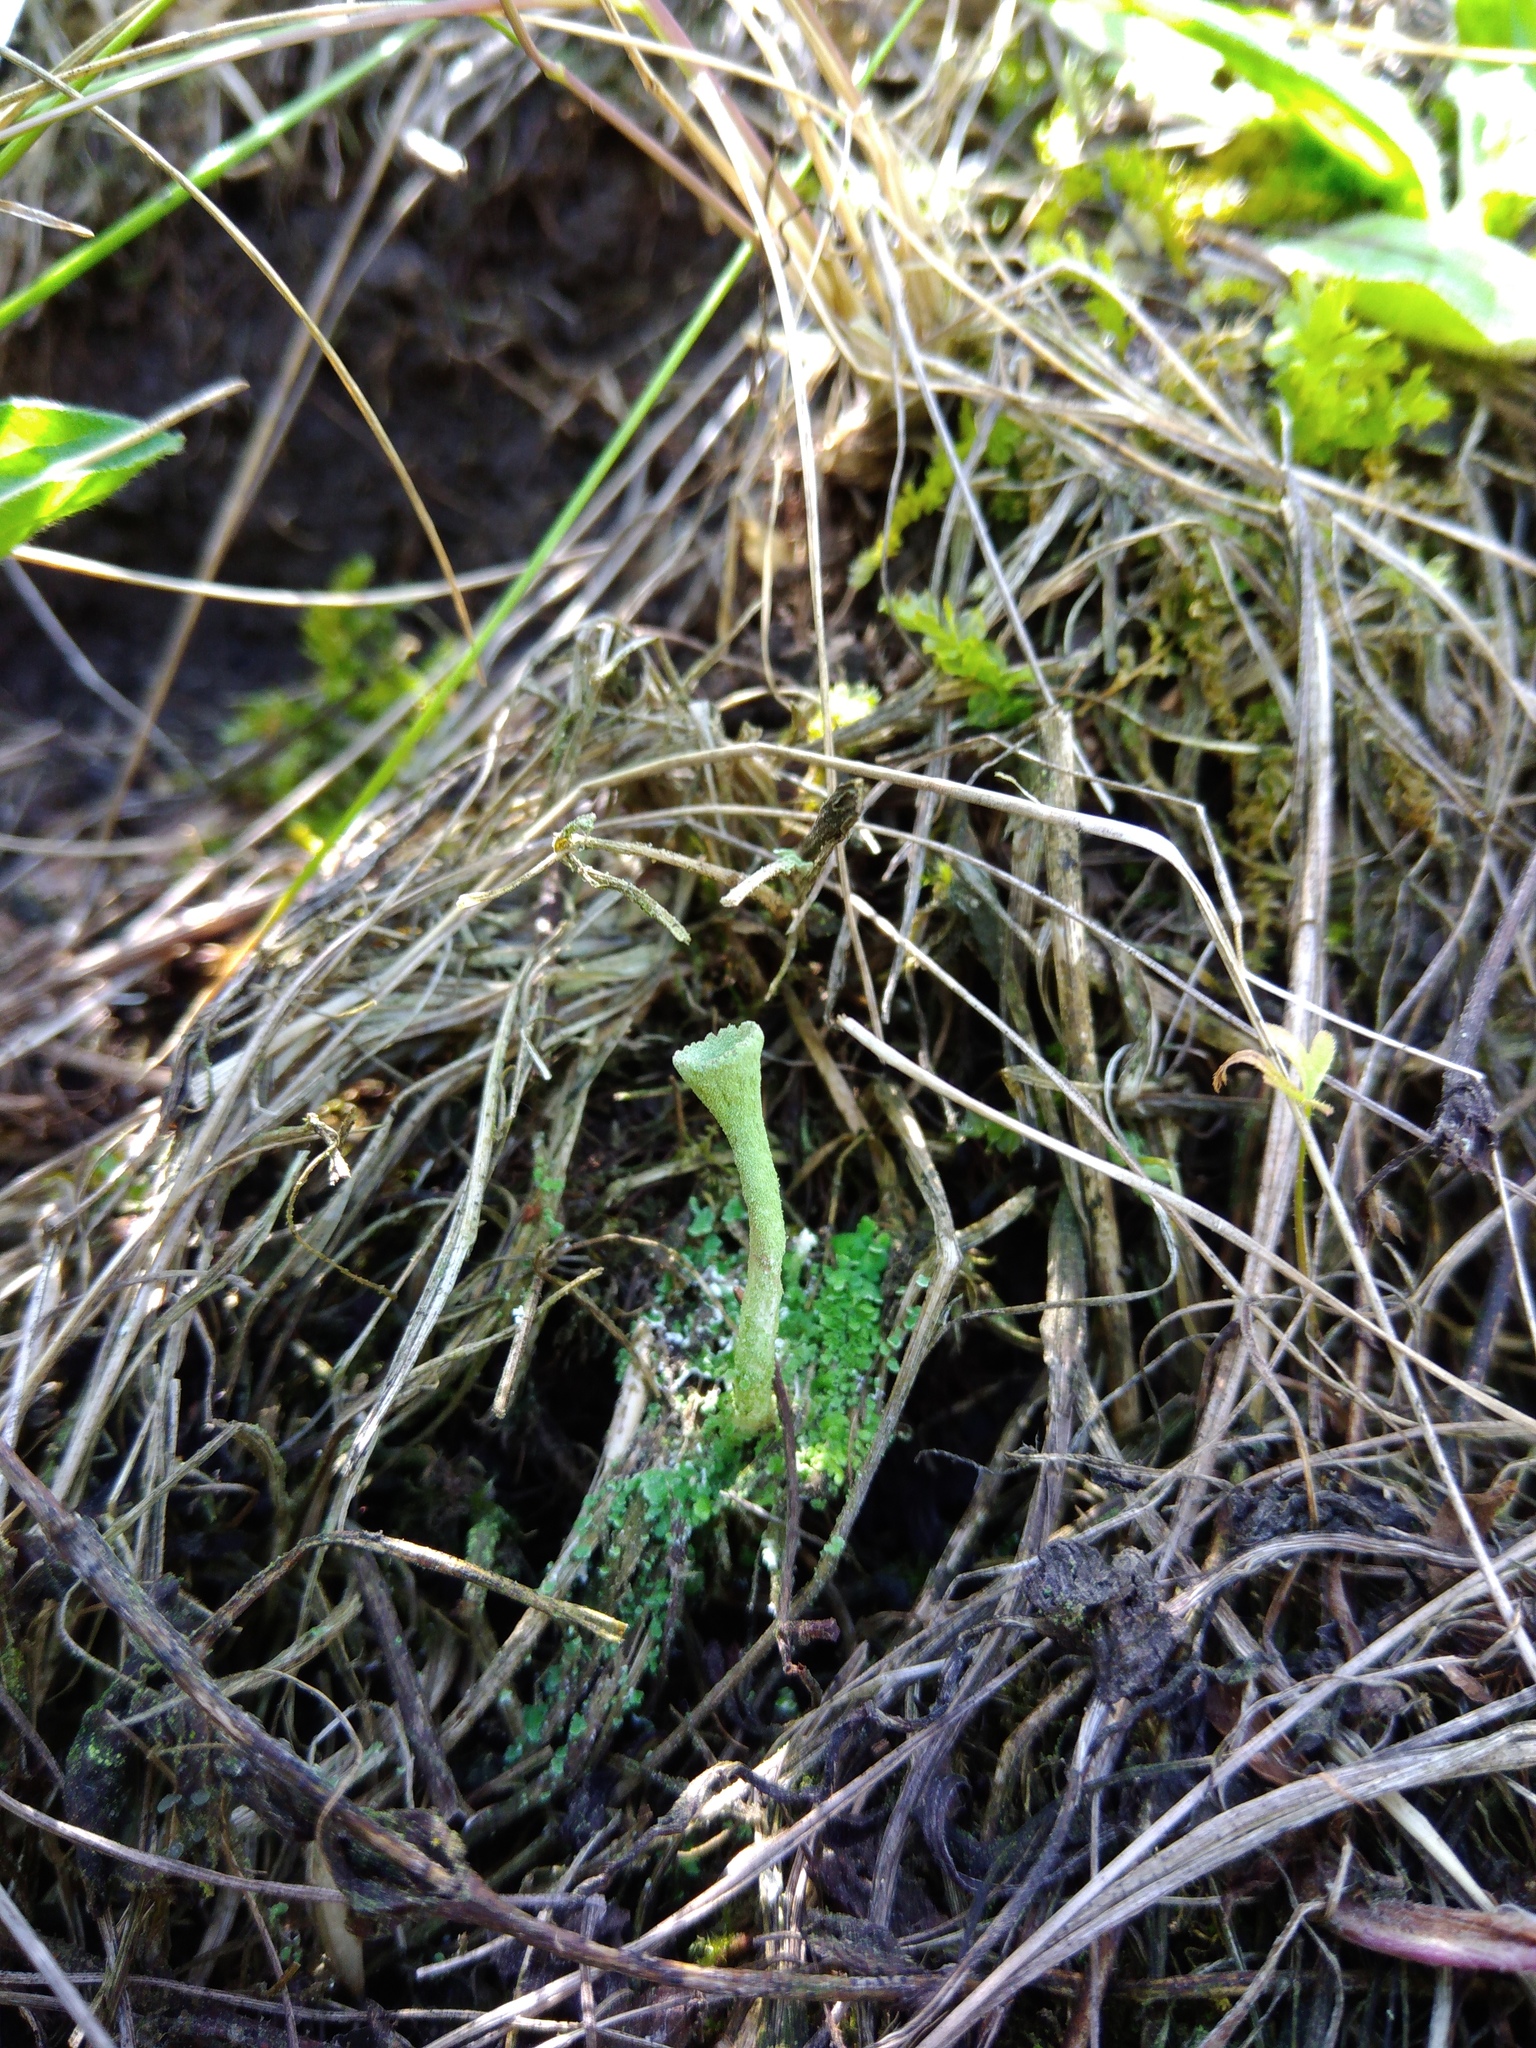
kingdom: Fungi
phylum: Ascomycota
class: Lecanoromycetes
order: Lecanorales
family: Cladoniaceae
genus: Cladonia
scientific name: Cladonia fimbriata
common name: Powdered trumpet lichen
